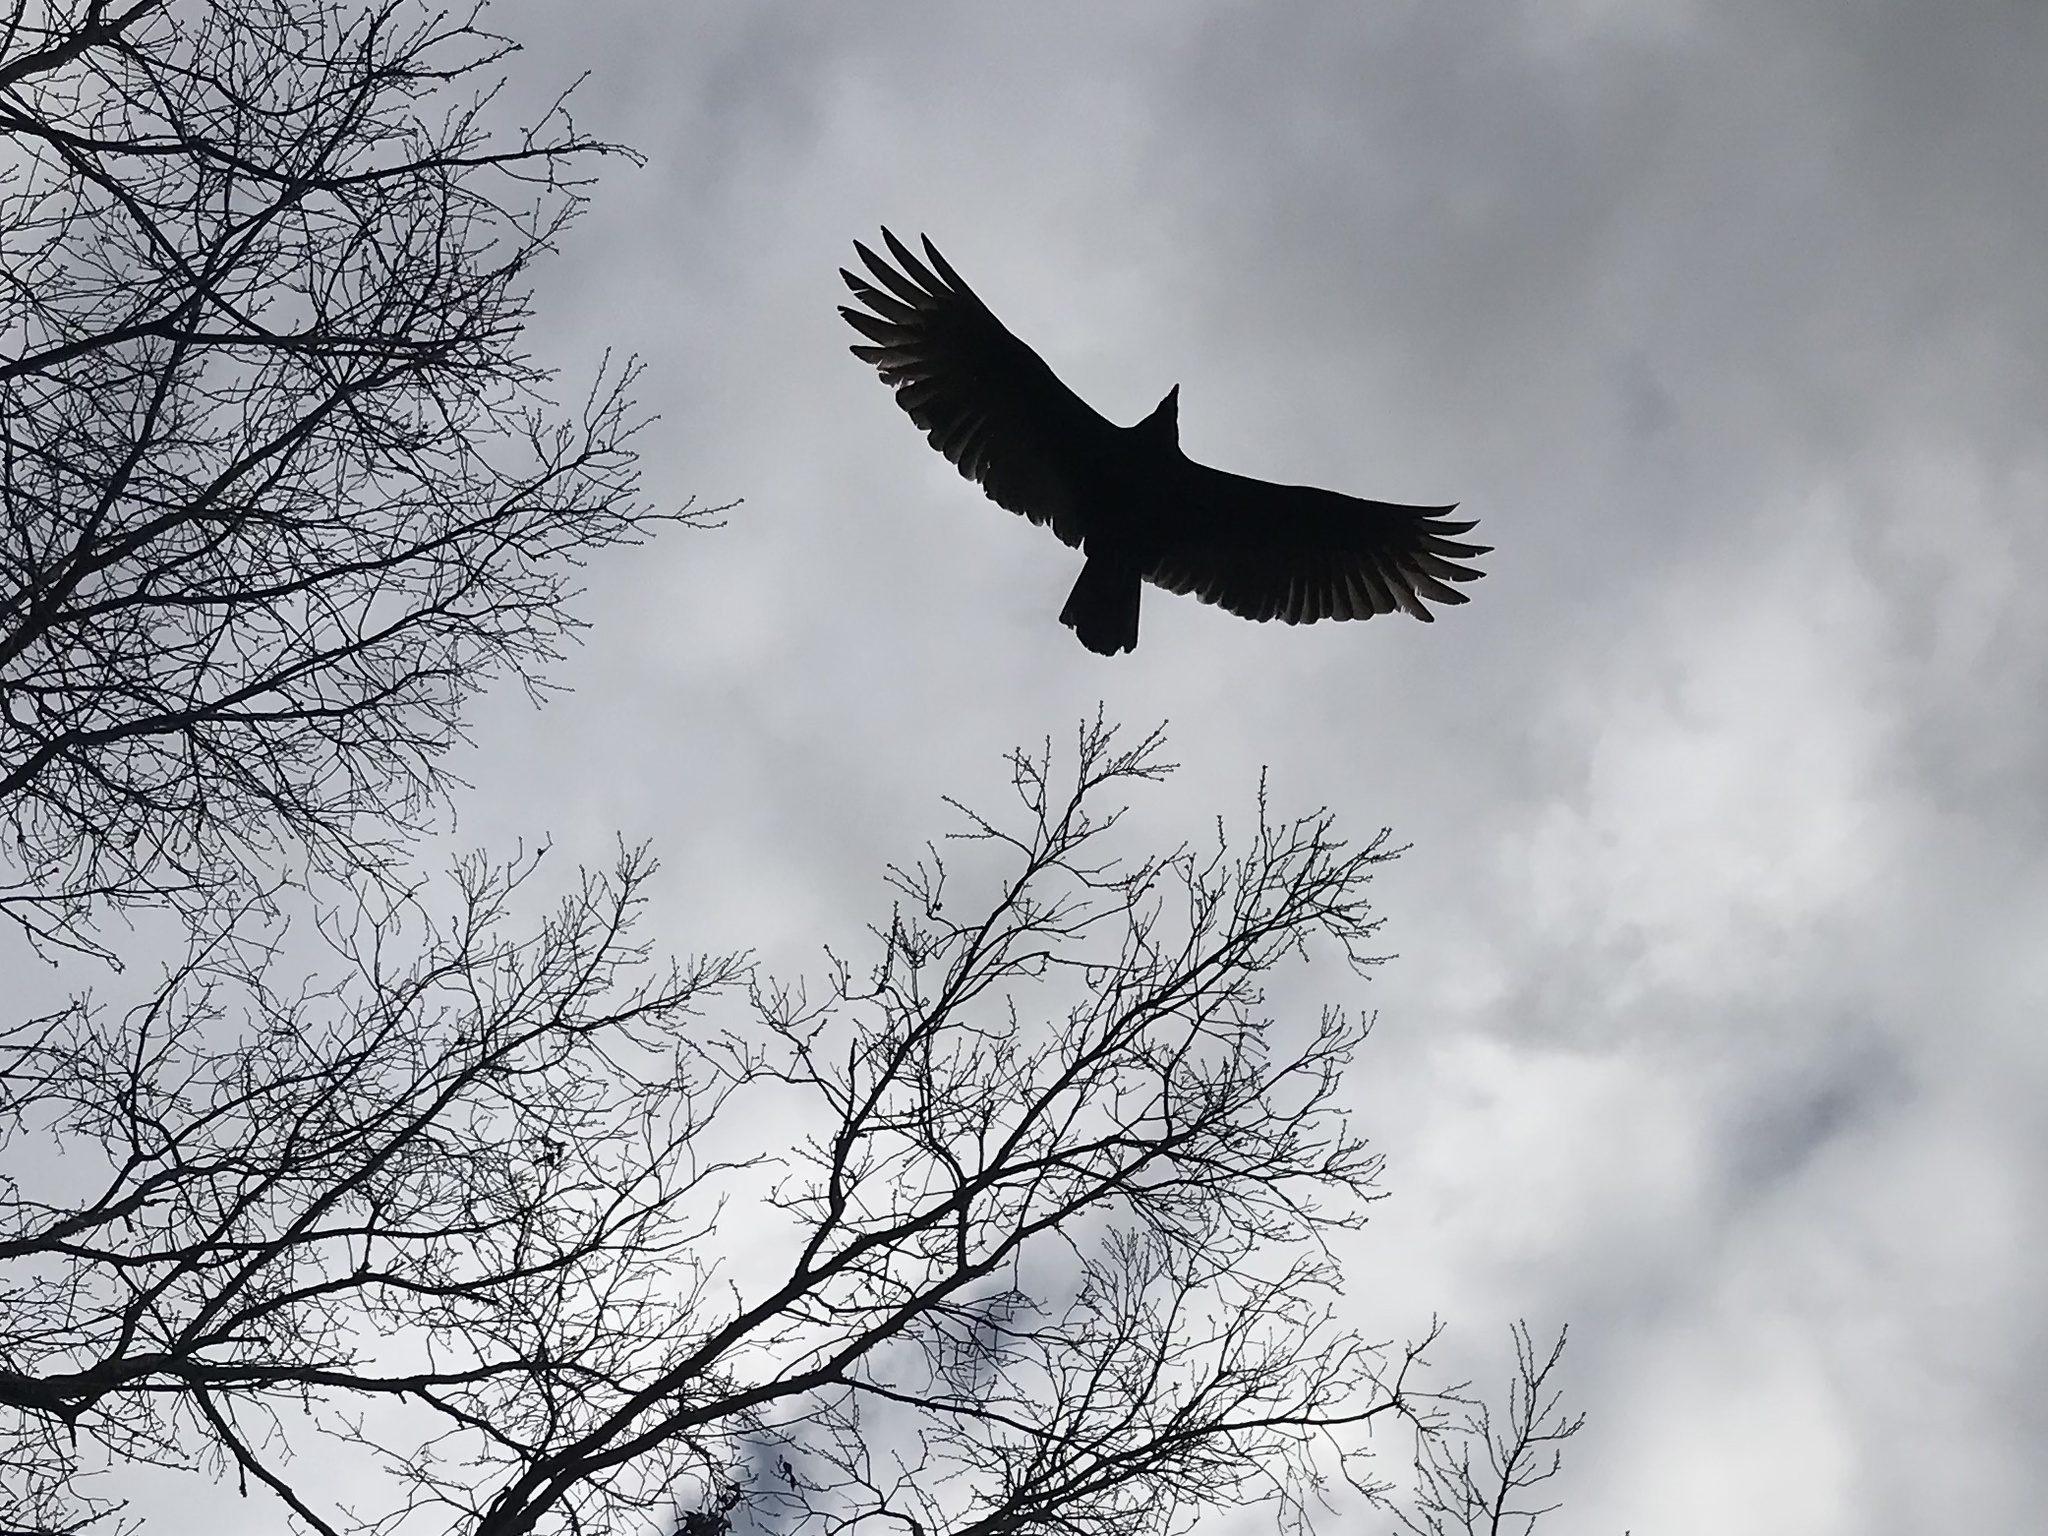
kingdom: Animalia
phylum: Chordata
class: Aves
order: Accipitriformes
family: Cathartidae
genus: Cathartes
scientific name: Cathartes aura
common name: Turkey vulture
